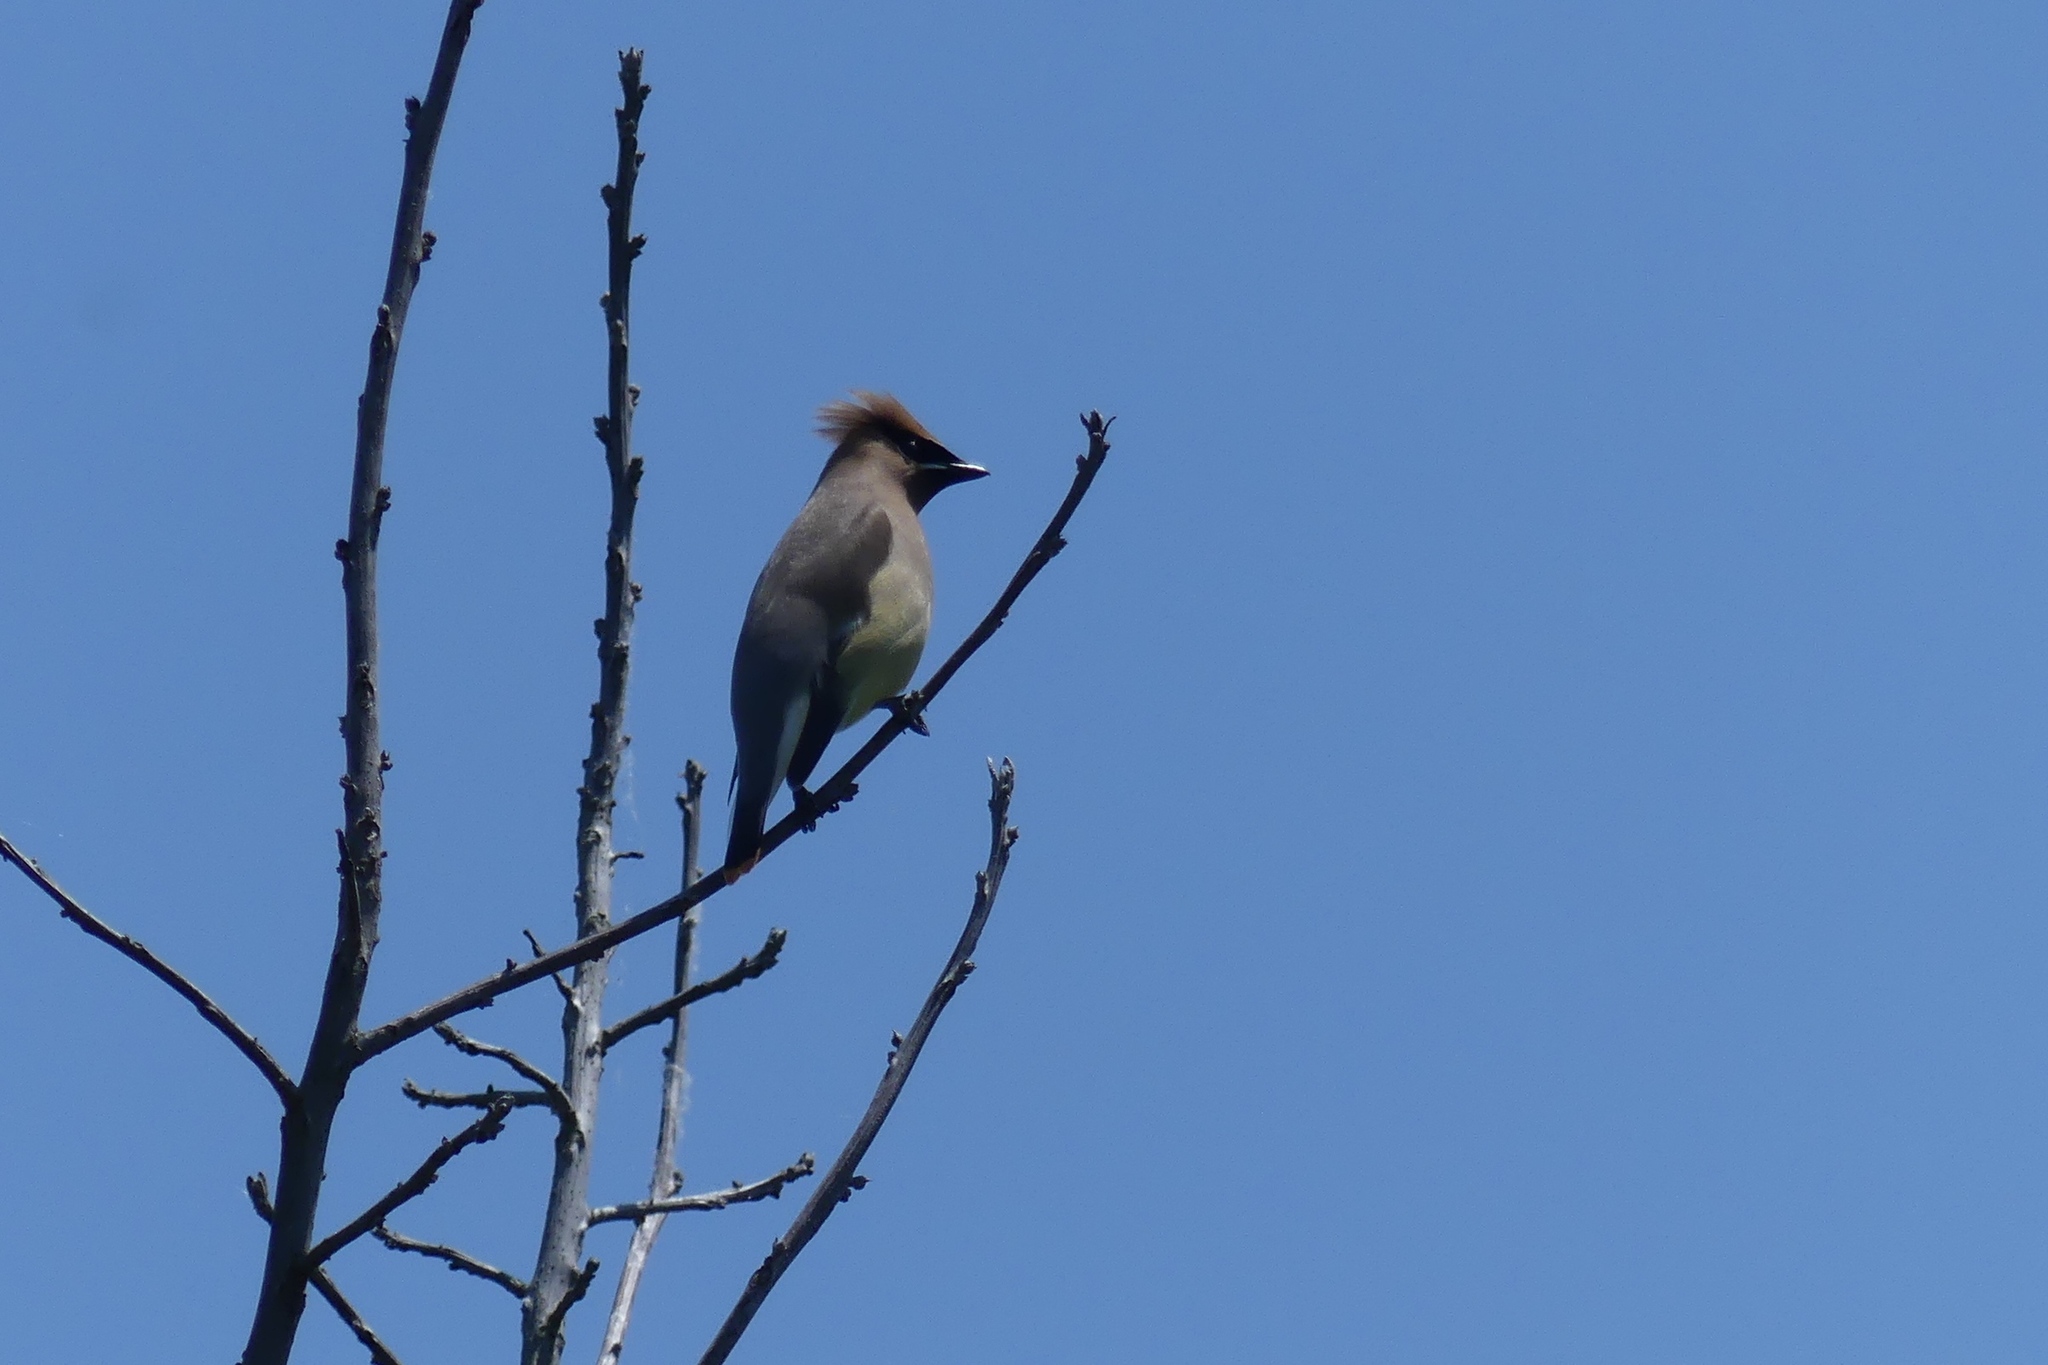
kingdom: Animalia
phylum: Chordata
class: Aves
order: Passeriformes
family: Bombycillidae
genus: Bombycilla
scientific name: Bombycilla cedrorum
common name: Cedar waxwing
